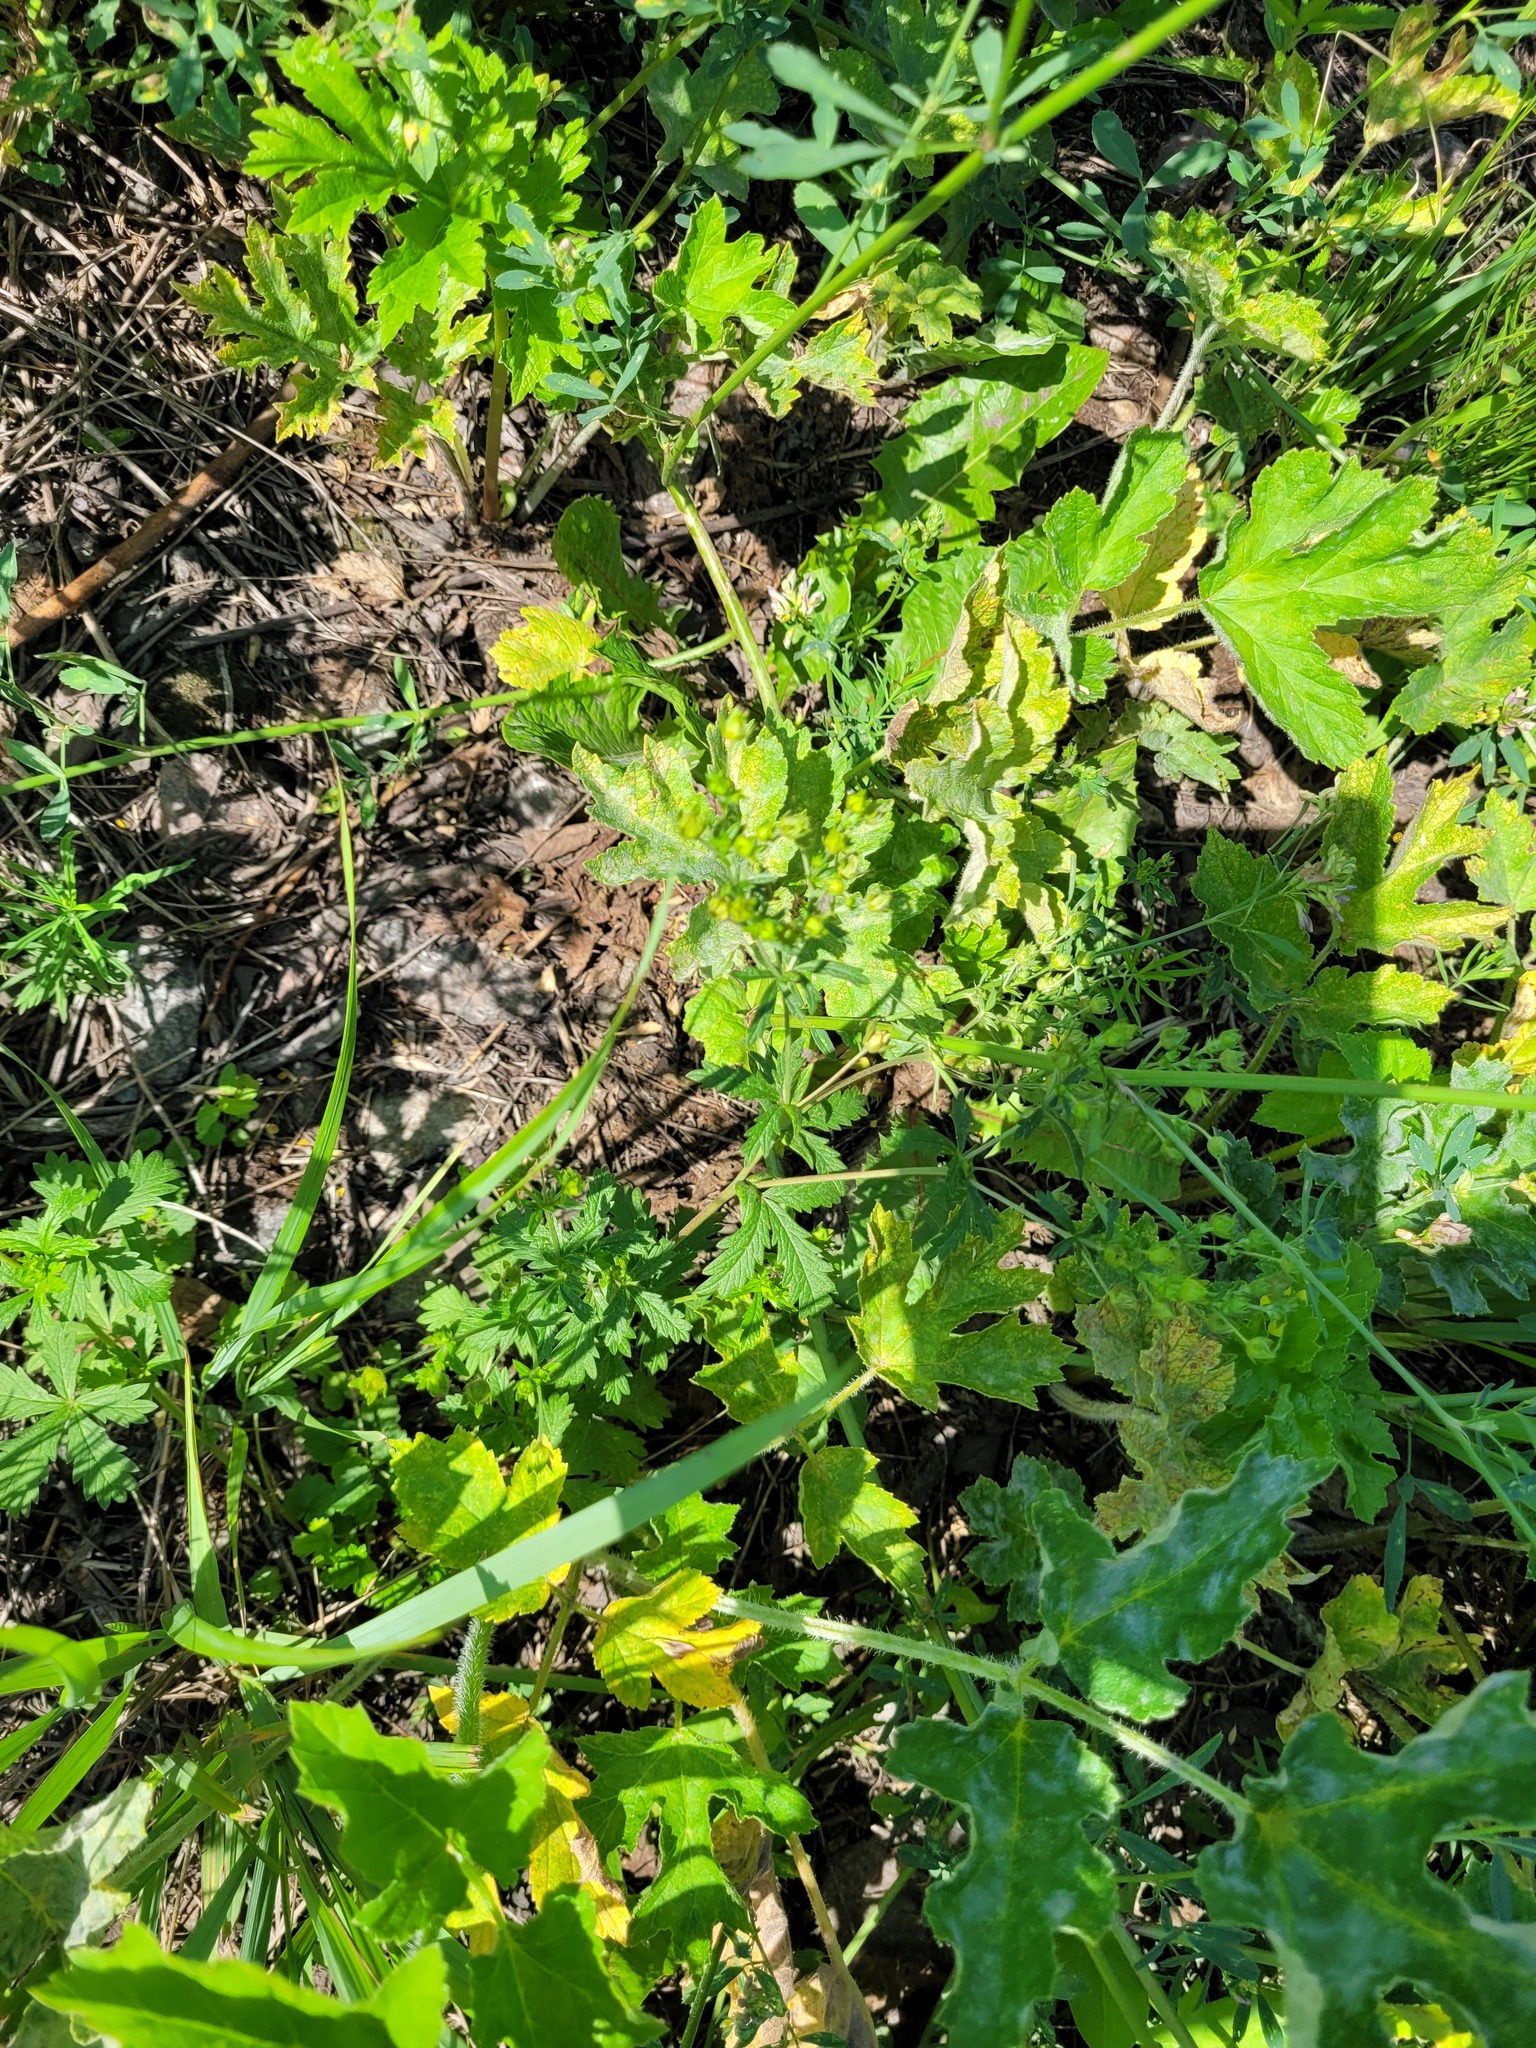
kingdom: Plantae
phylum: Tracheophyta
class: Magnoliopsida
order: Rosales
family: Rosaceae
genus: Potentilla
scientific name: Potentilla intermedia
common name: Downy cinquefoil
